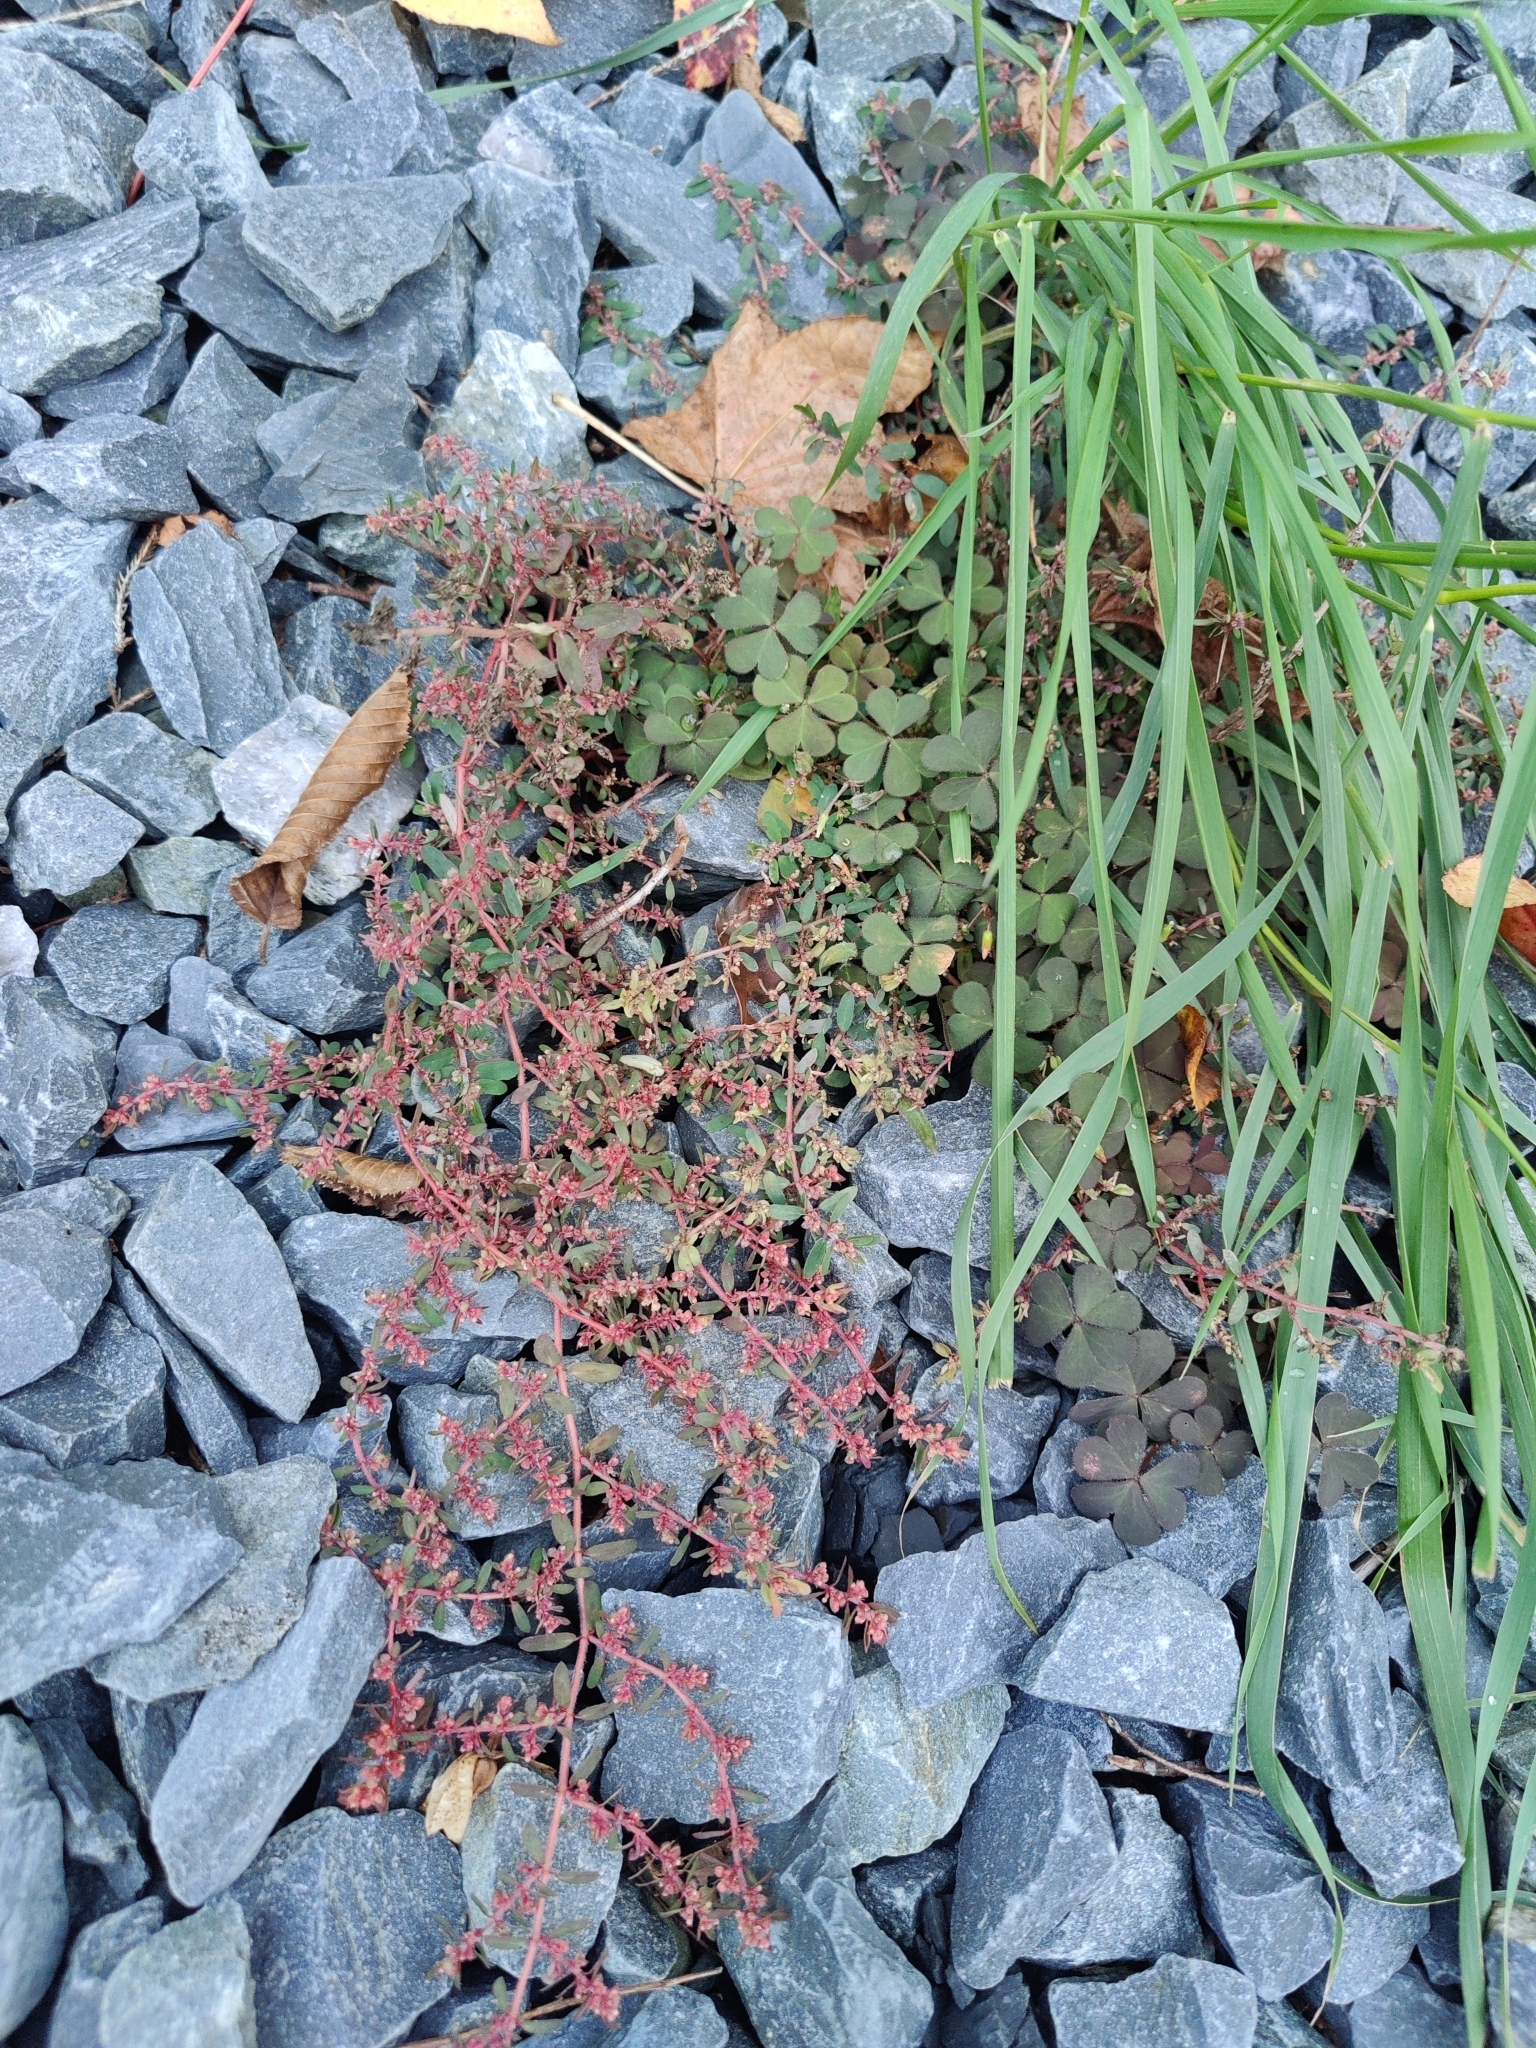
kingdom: Plantae
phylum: Tracheophyta
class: Magnoliopsida
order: Malpighiales
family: Euphorbiaceae
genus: Euphorbia
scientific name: Euphorbia maculata
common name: Spotted spurge
